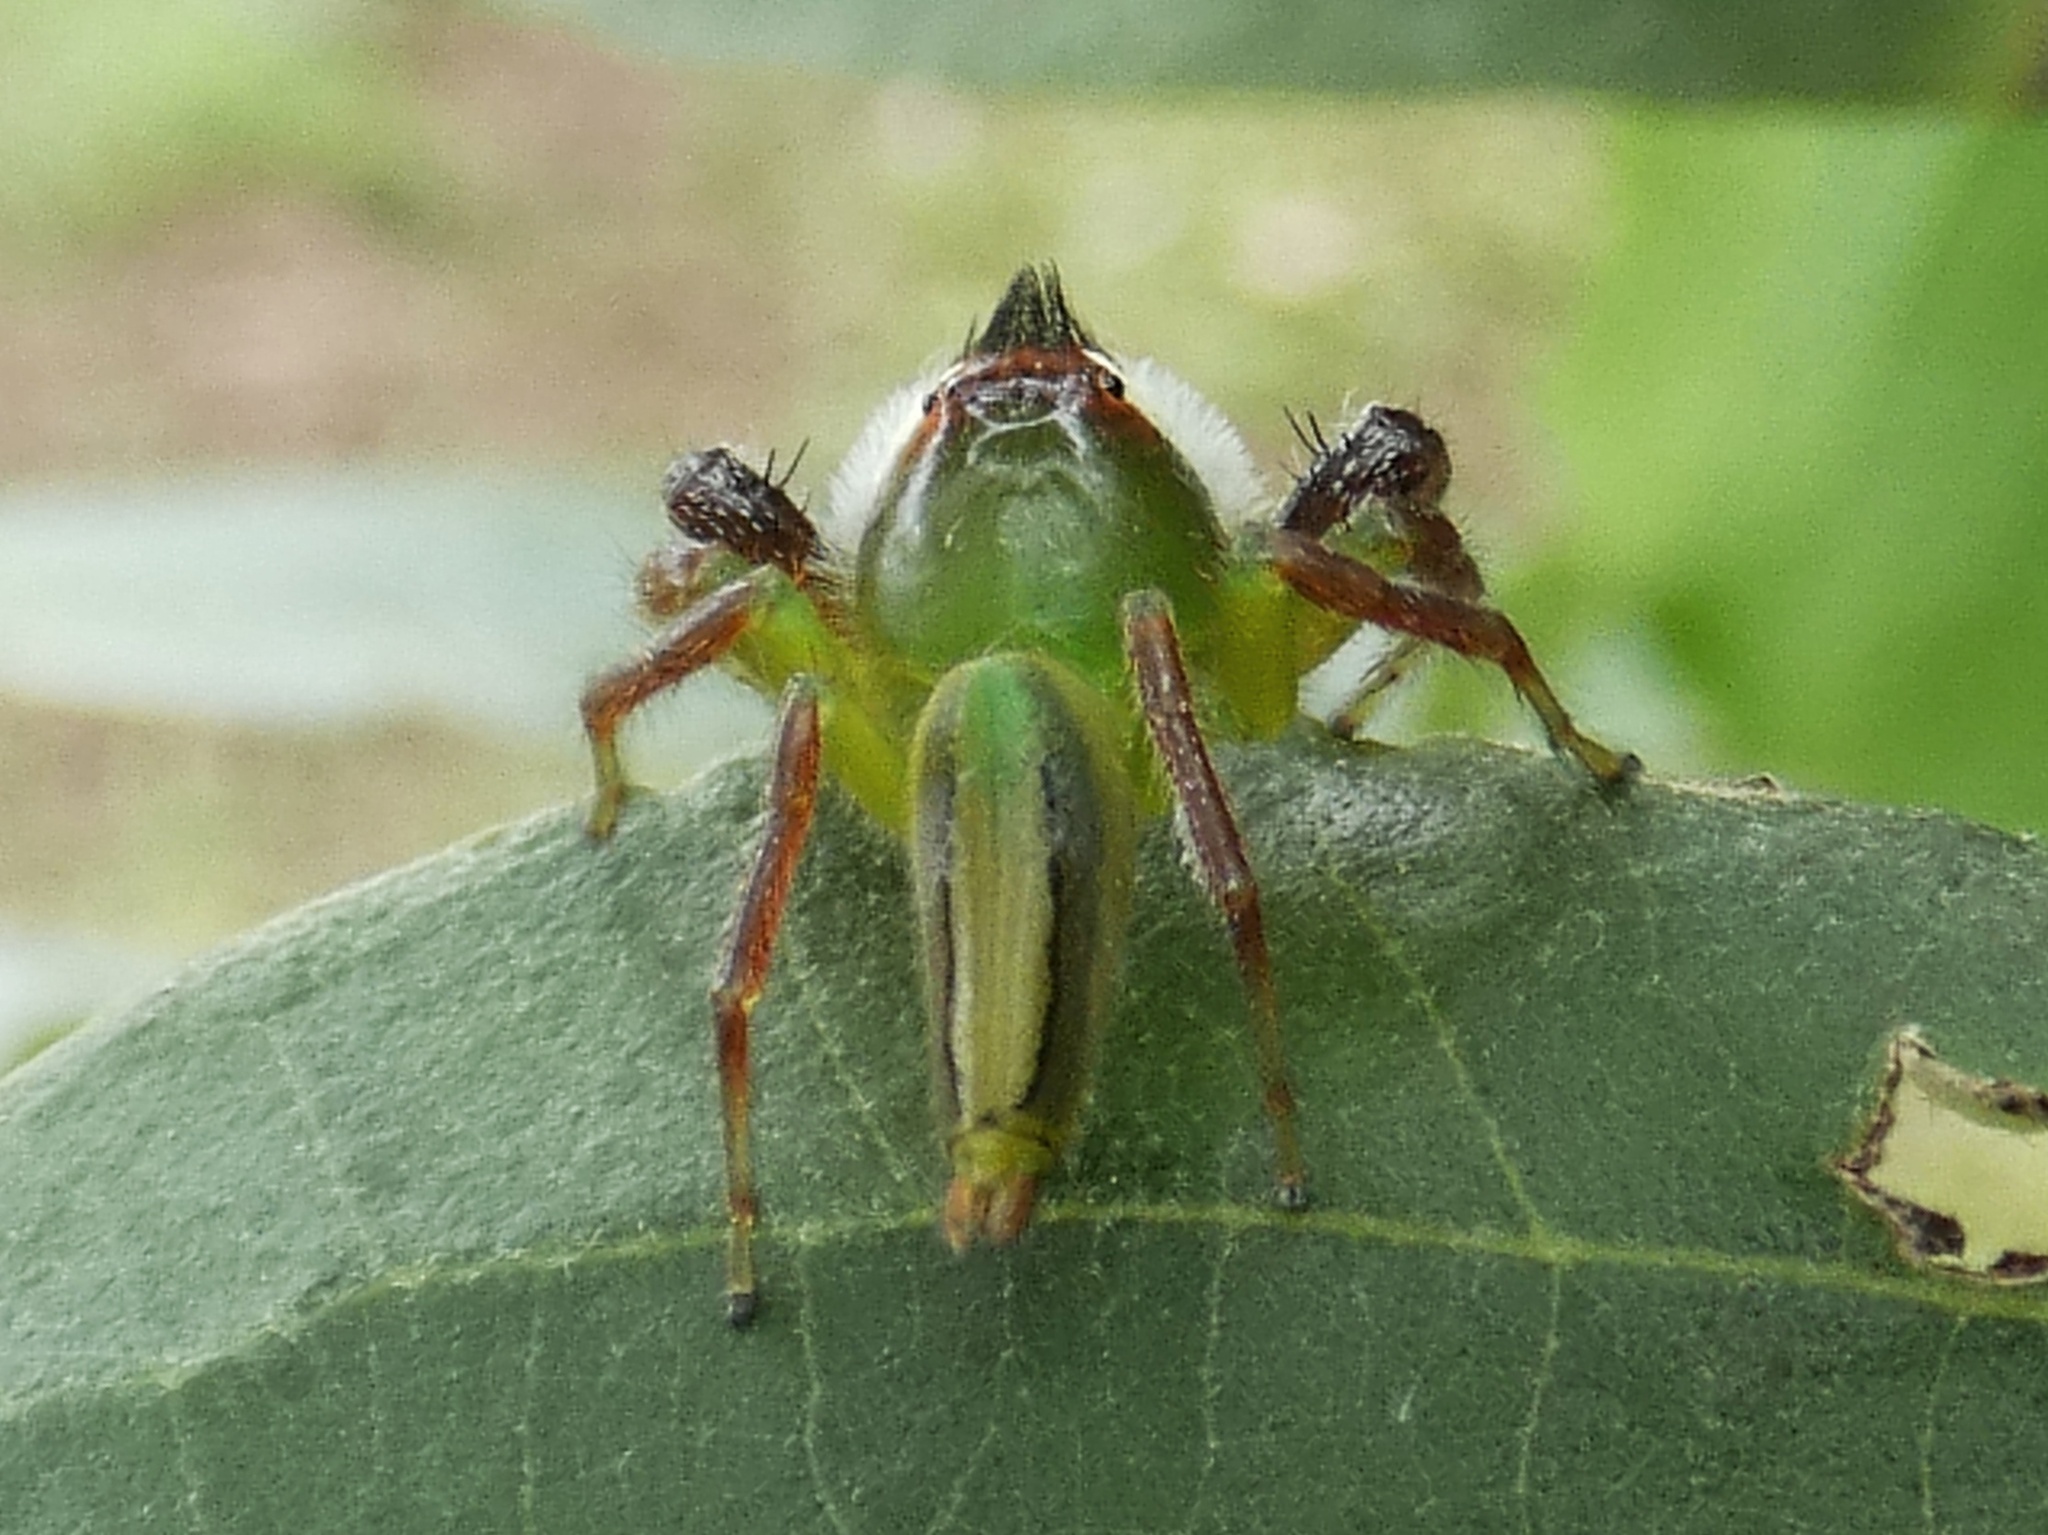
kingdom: Animalia
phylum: Arthropoda
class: Arachnida
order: Araneae
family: Salticidae
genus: Mopsus
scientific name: Mopsus mormon
